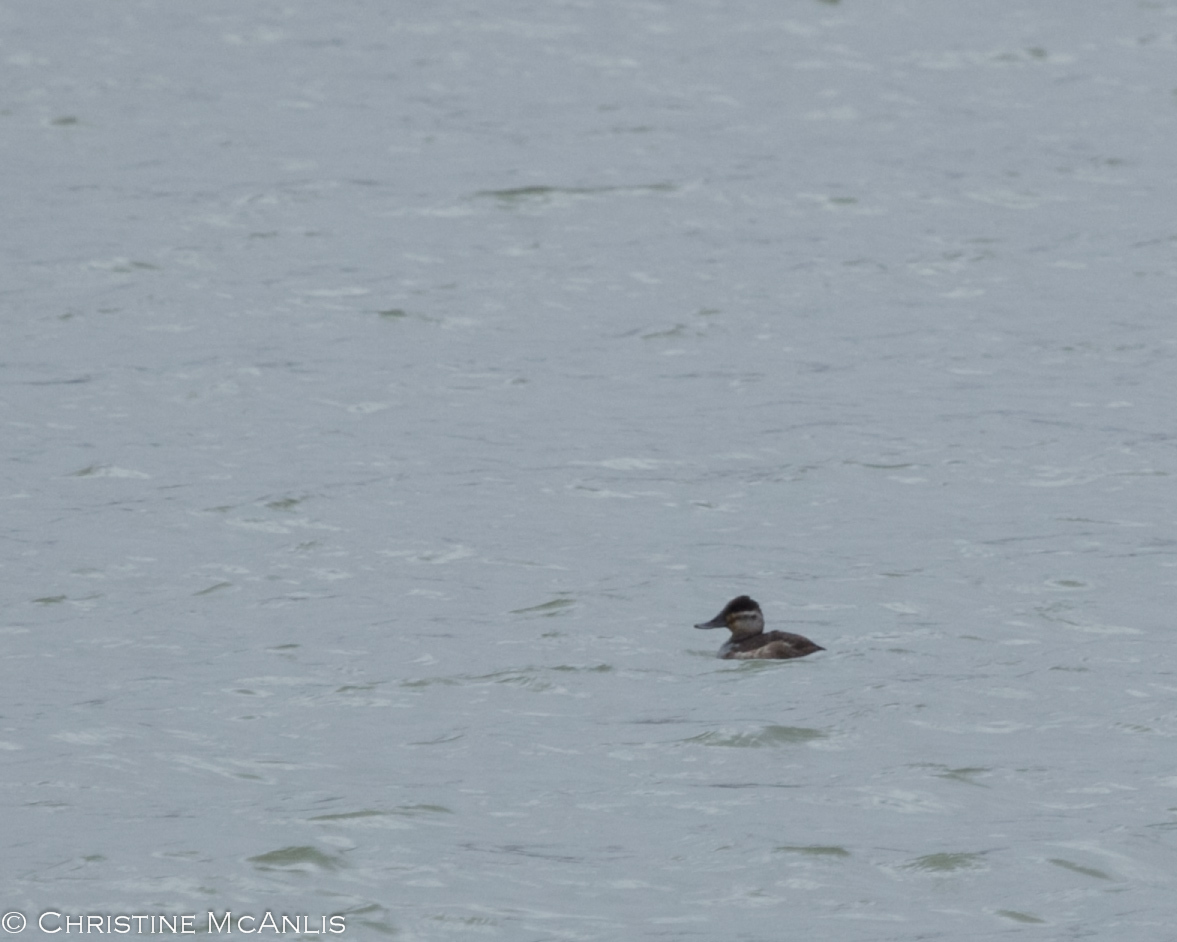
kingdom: Animalia
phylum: Chordata
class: Aves
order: Anseriformes
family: Anatidae
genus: Oxyura
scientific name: Oxyura jamaicensis
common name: Ruddy duck
